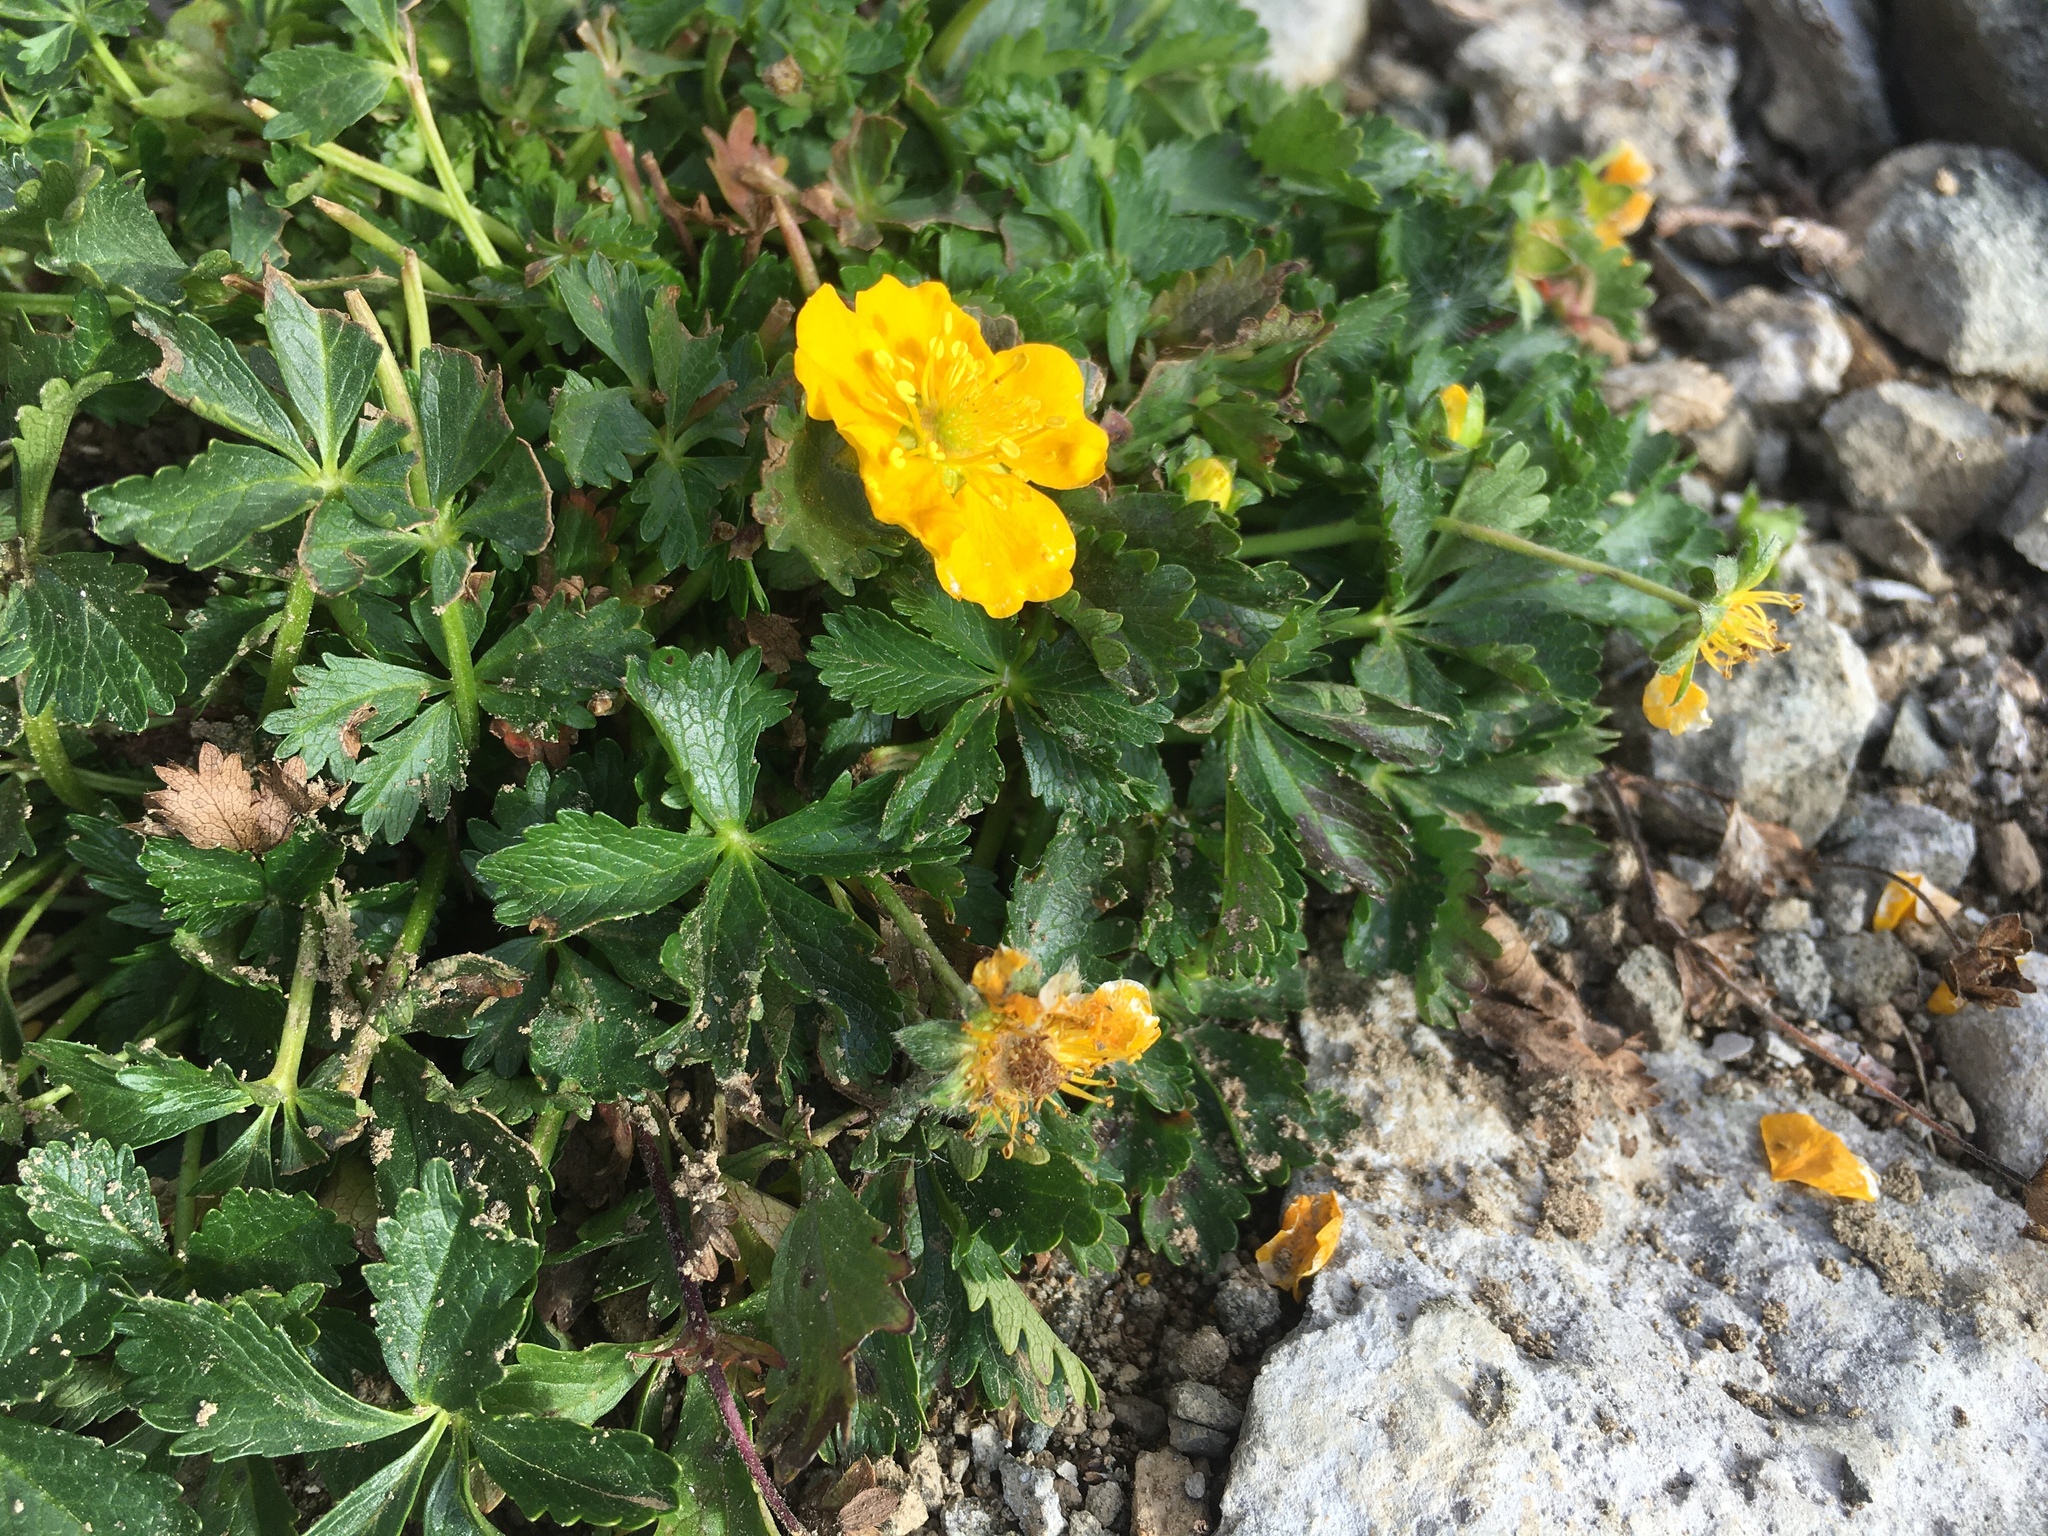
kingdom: Plantae
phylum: Tracheophyta
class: Magnoliopsida
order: Rosales
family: Rosaceae
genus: Potentilla
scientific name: Potentilla ruprechtii
